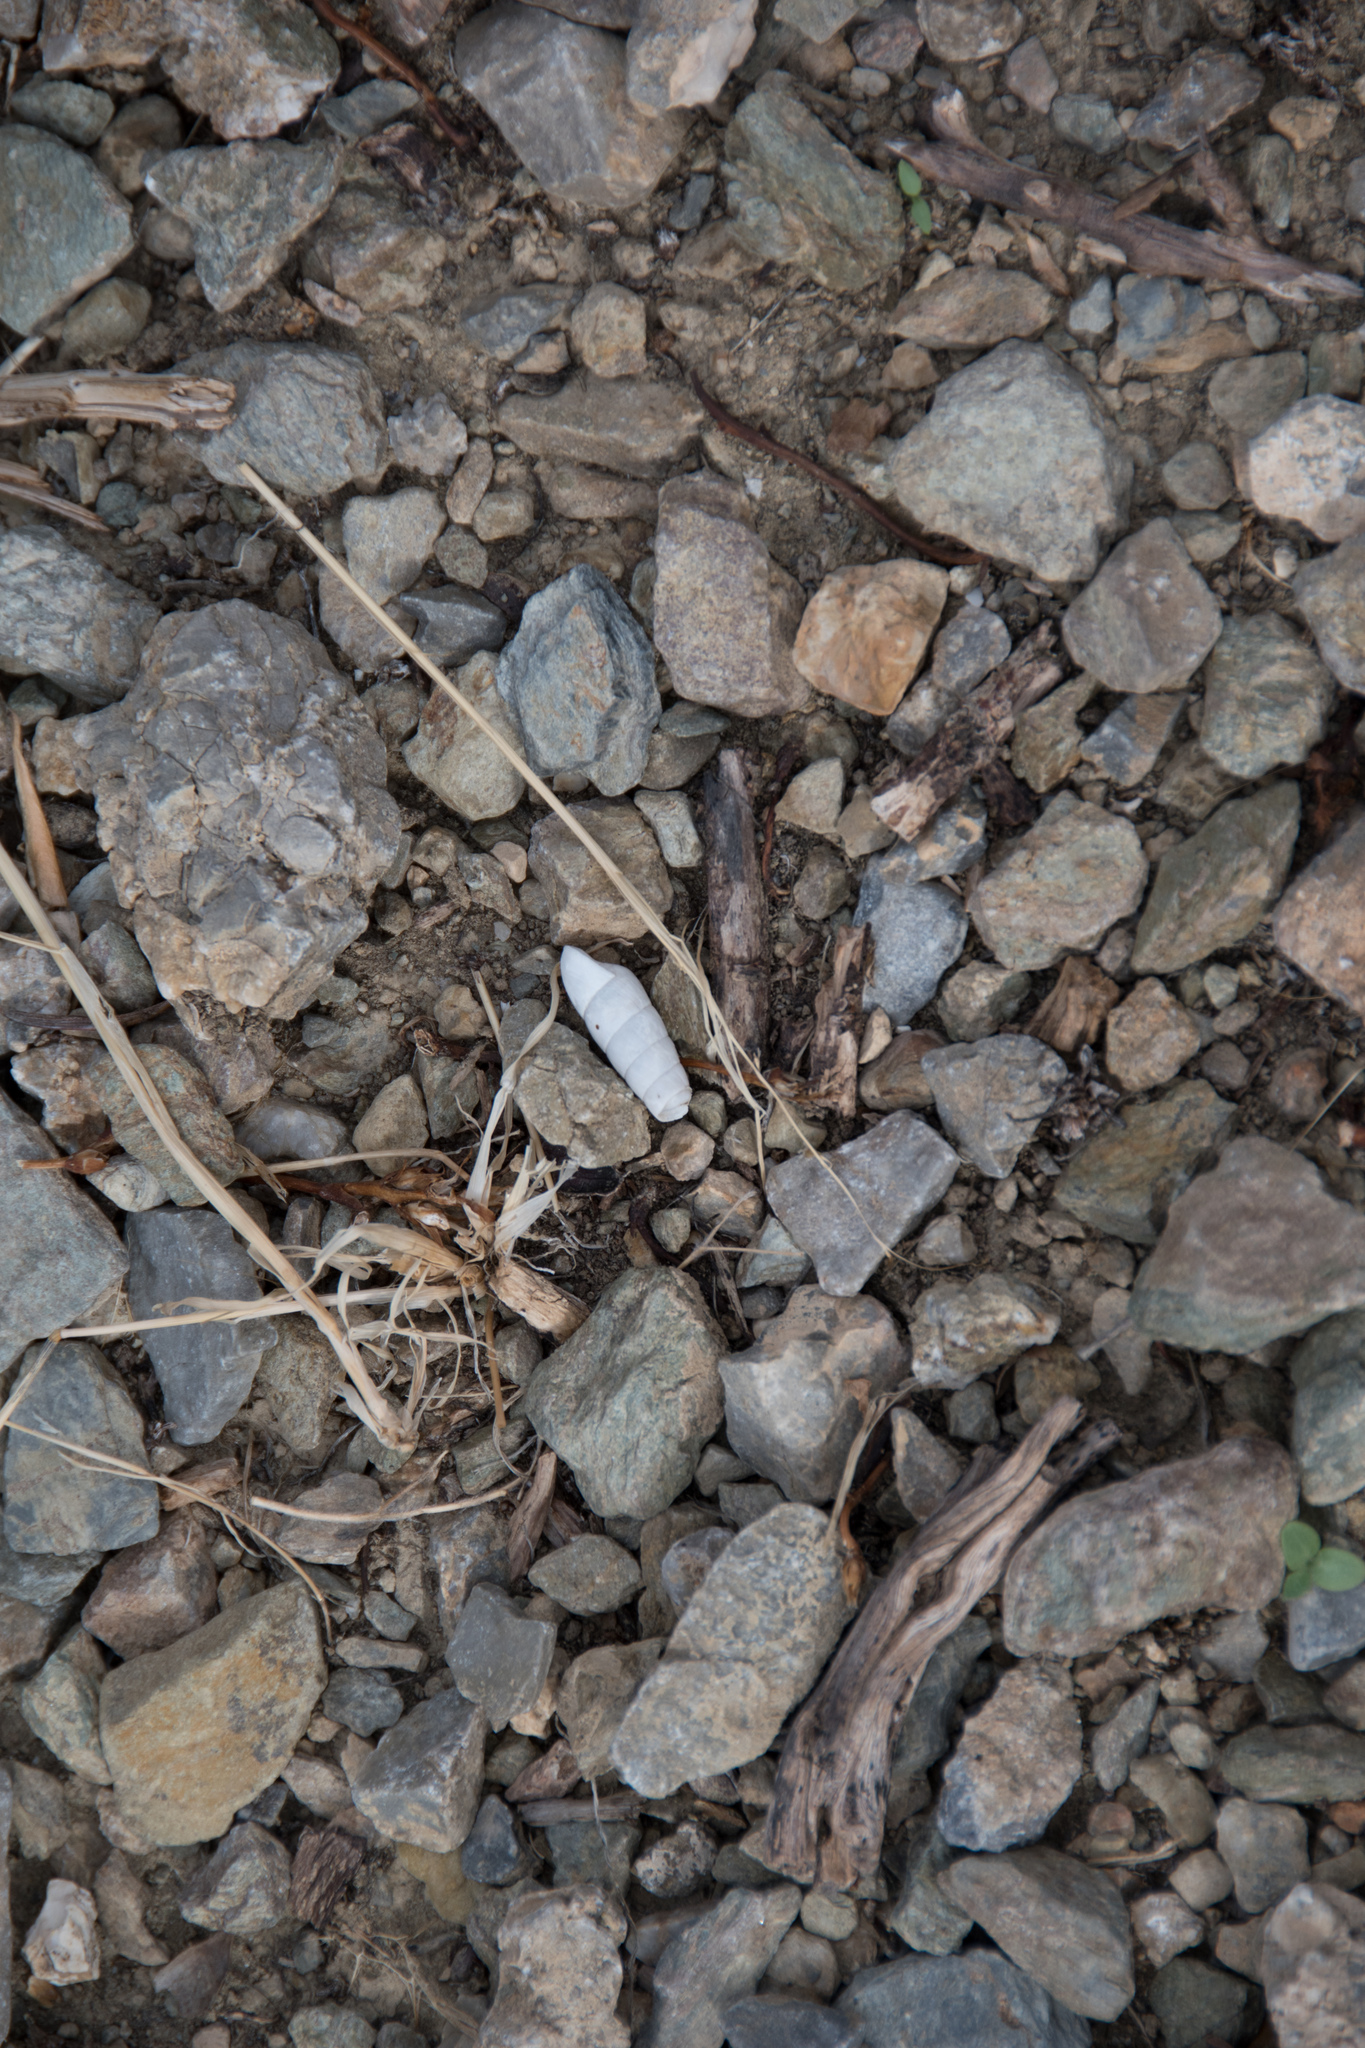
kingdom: Animalia
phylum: Mollusca
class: Gastropoda
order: Stylommatophora
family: Achatinidae
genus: Rumina
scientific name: Rumina saharica
